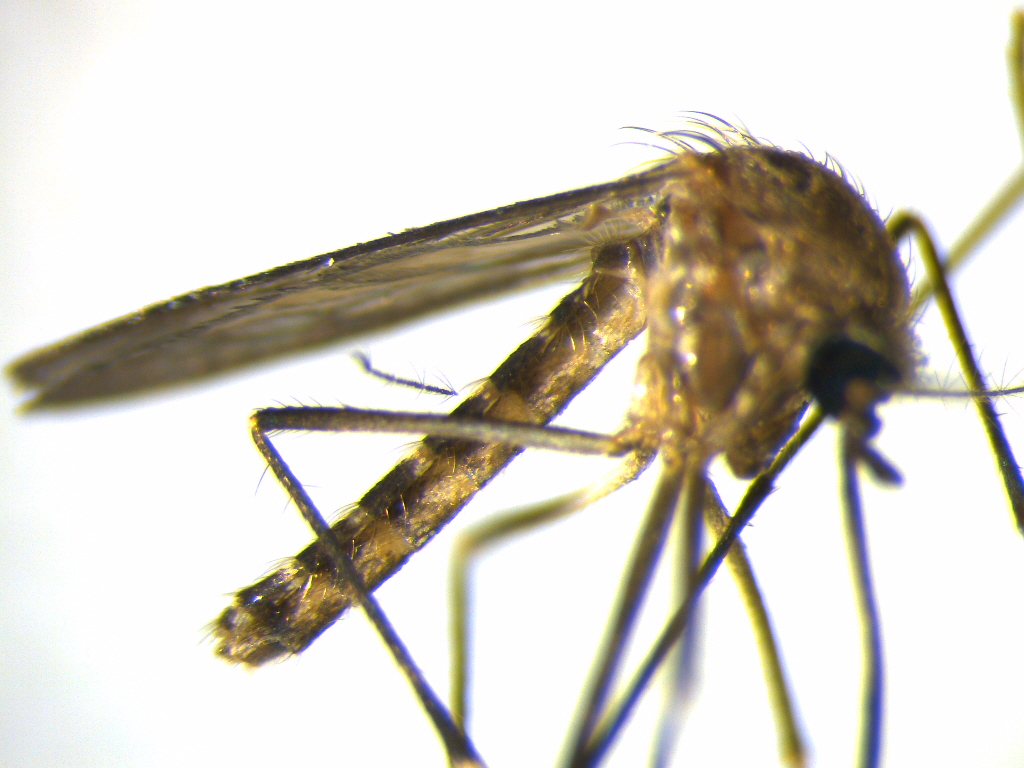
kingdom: Animalia
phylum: Arthropoda
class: Insecta
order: Diptera
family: Culicidae
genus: Culex
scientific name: Culex pervigilans
